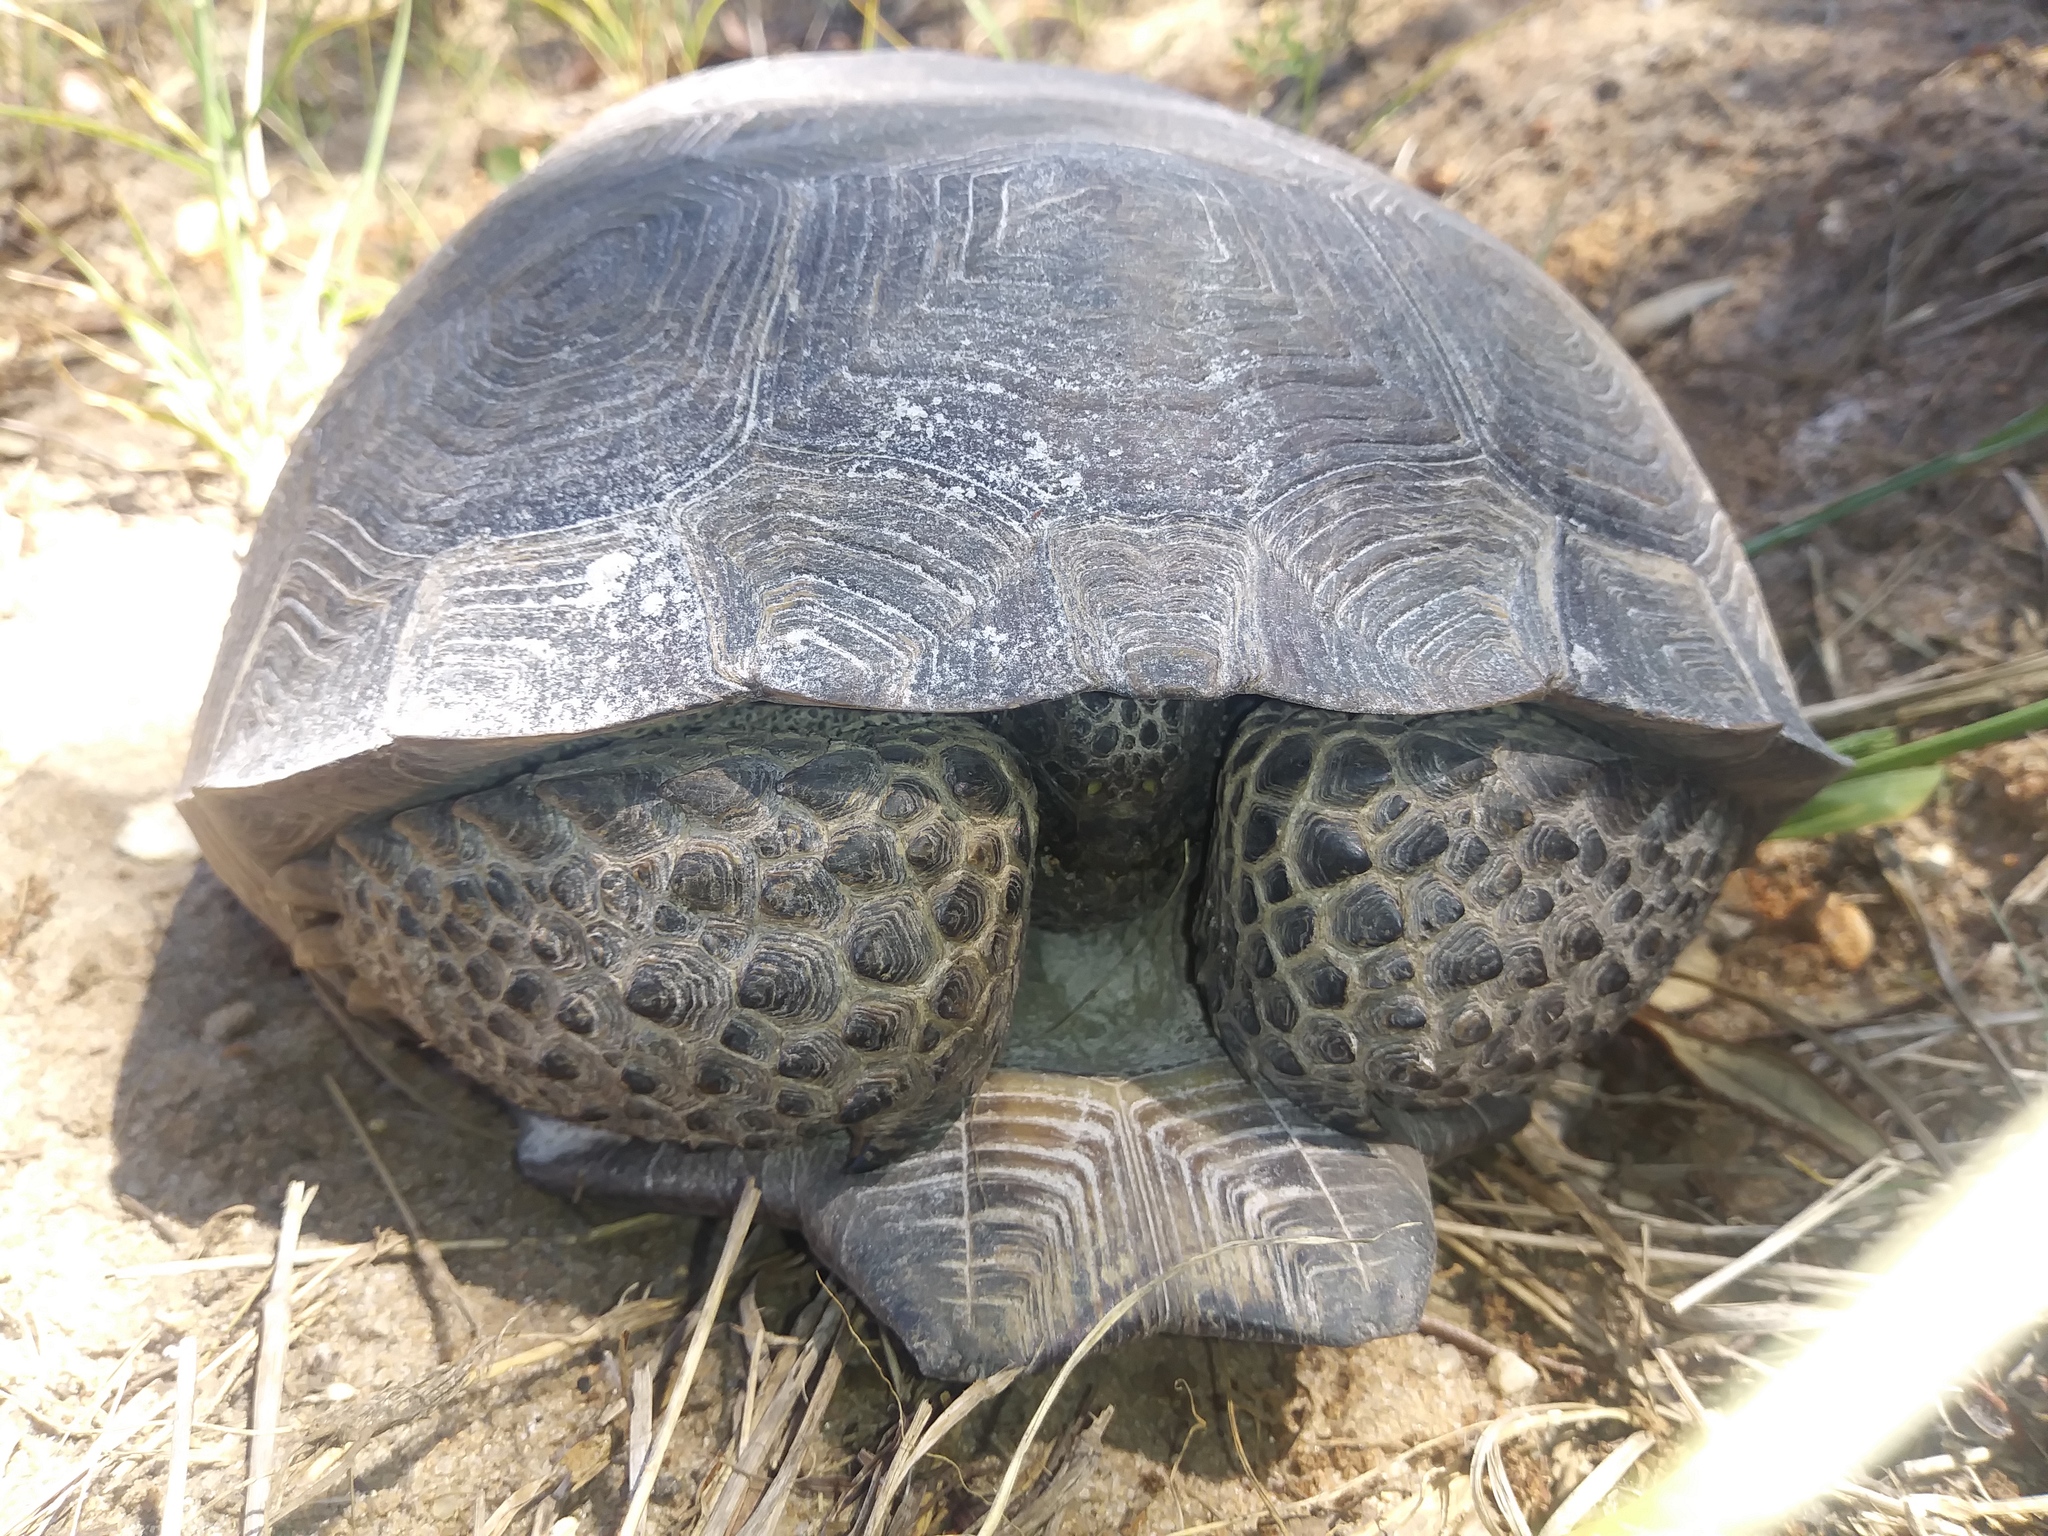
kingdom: Animalia
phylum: Chordata
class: Testudines
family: Testudinidae
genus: Gopherus
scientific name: Gopherus polyphemus
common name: Florida gopher tortoise
